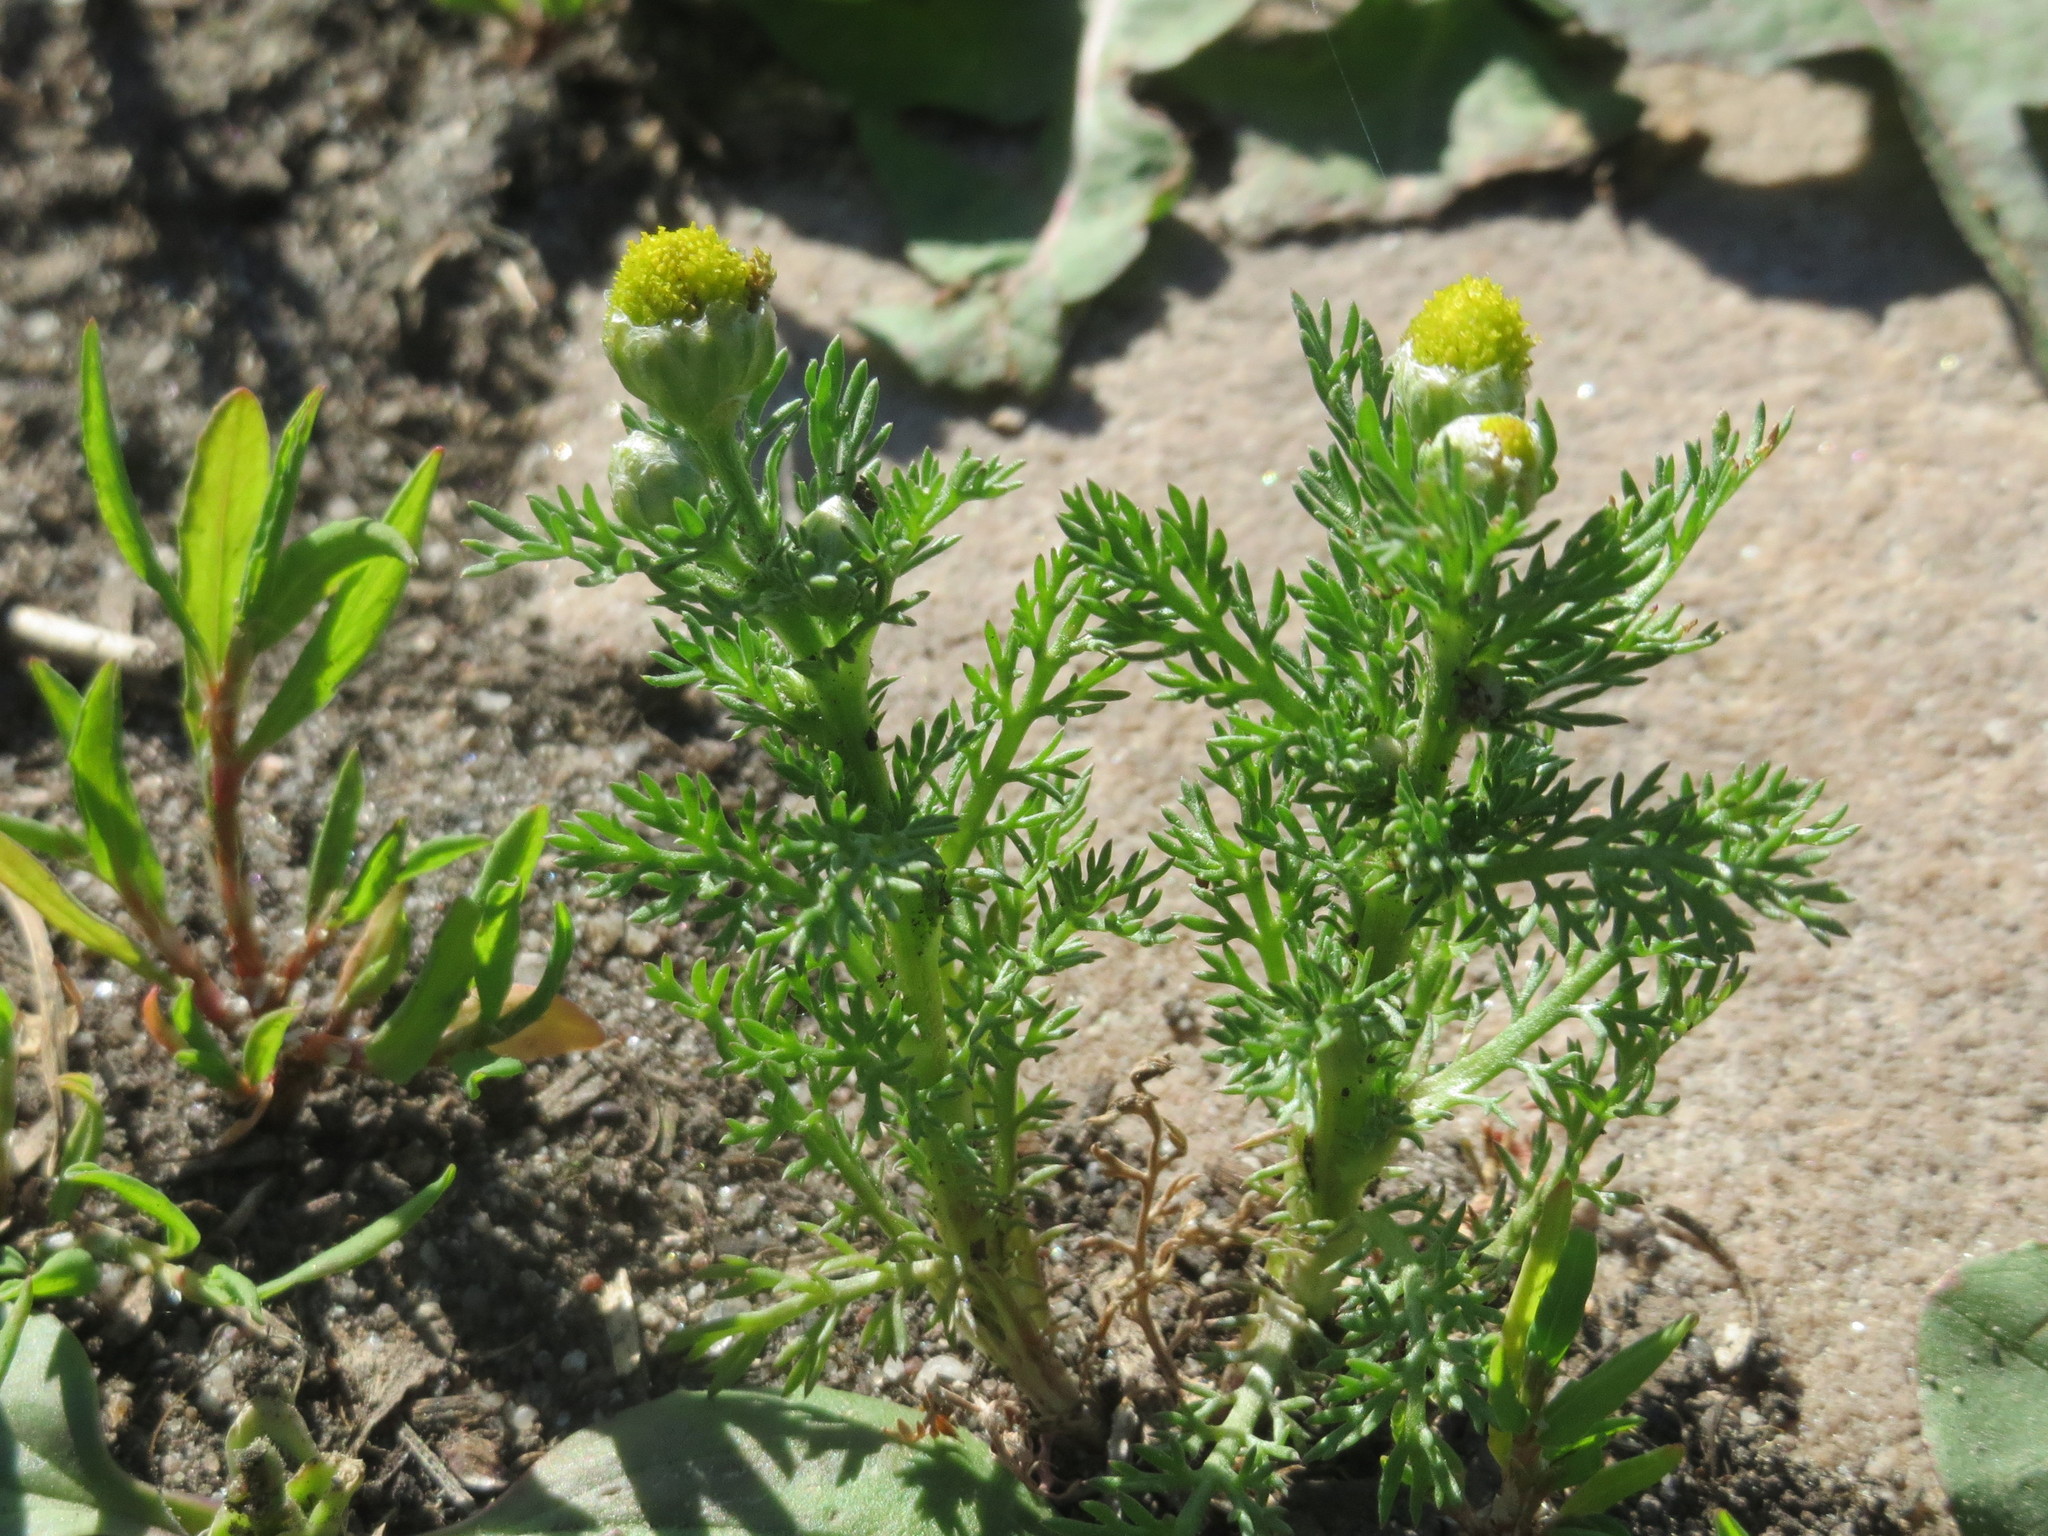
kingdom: Plantae
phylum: Tracheophyta
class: Magnoliopsida
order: Asterales
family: Asteraceae
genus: Matricaria
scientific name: Matricaria discoidea
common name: Disc mayweed
